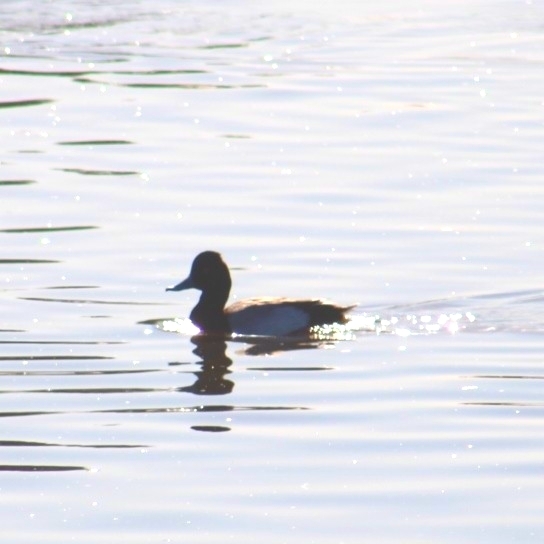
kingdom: Animalia
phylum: Chordata
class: Aves
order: Anseriformes
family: Anatidae
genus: Aythya
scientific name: Aythya affinis
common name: Lesser scaup
